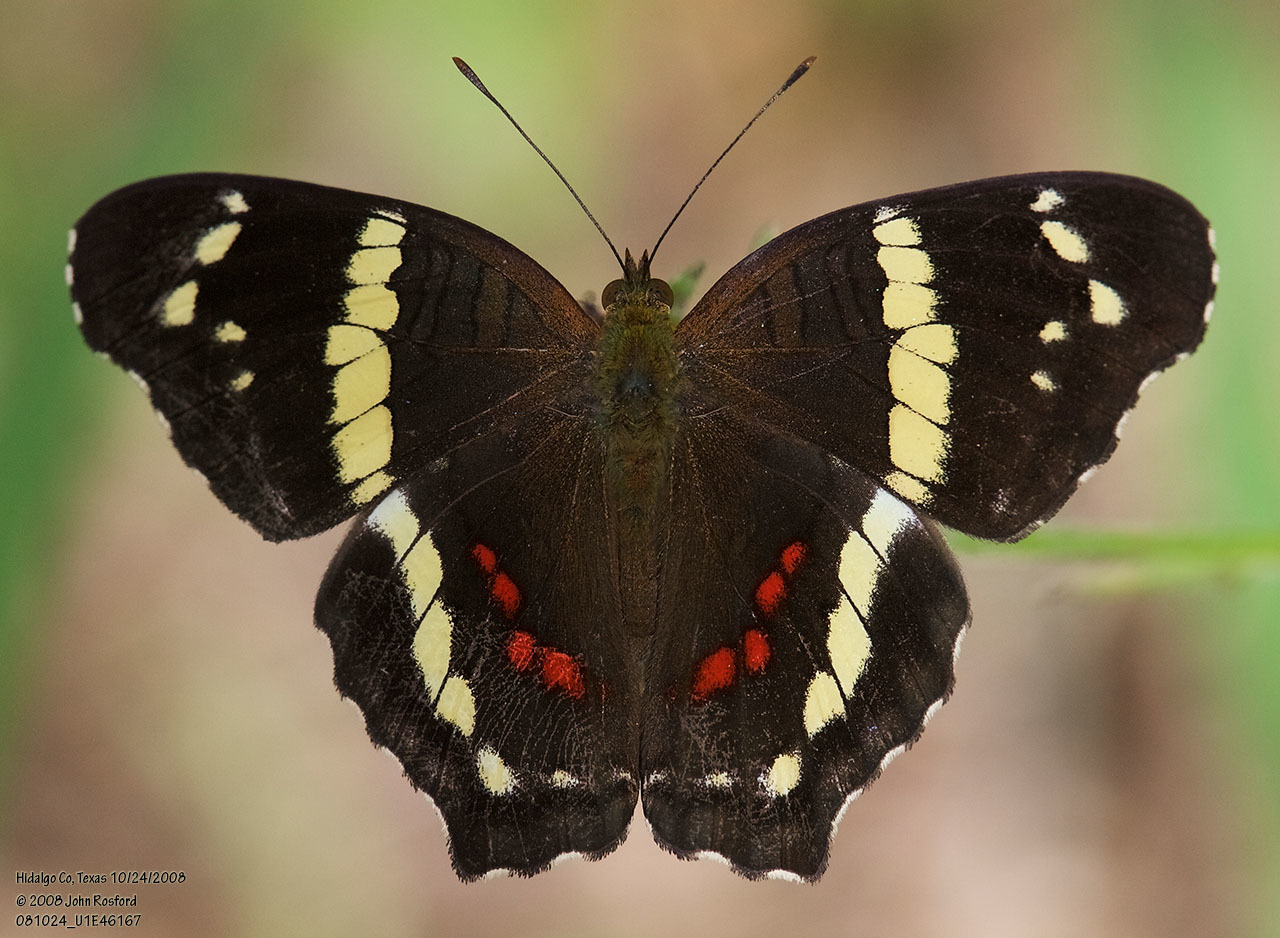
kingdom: Animalia
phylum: Arthropoda
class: Insecta
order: Lepidoptera
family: Nymphalidae
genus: Anartia
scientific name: Anartia fatima
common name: Banded peacock
